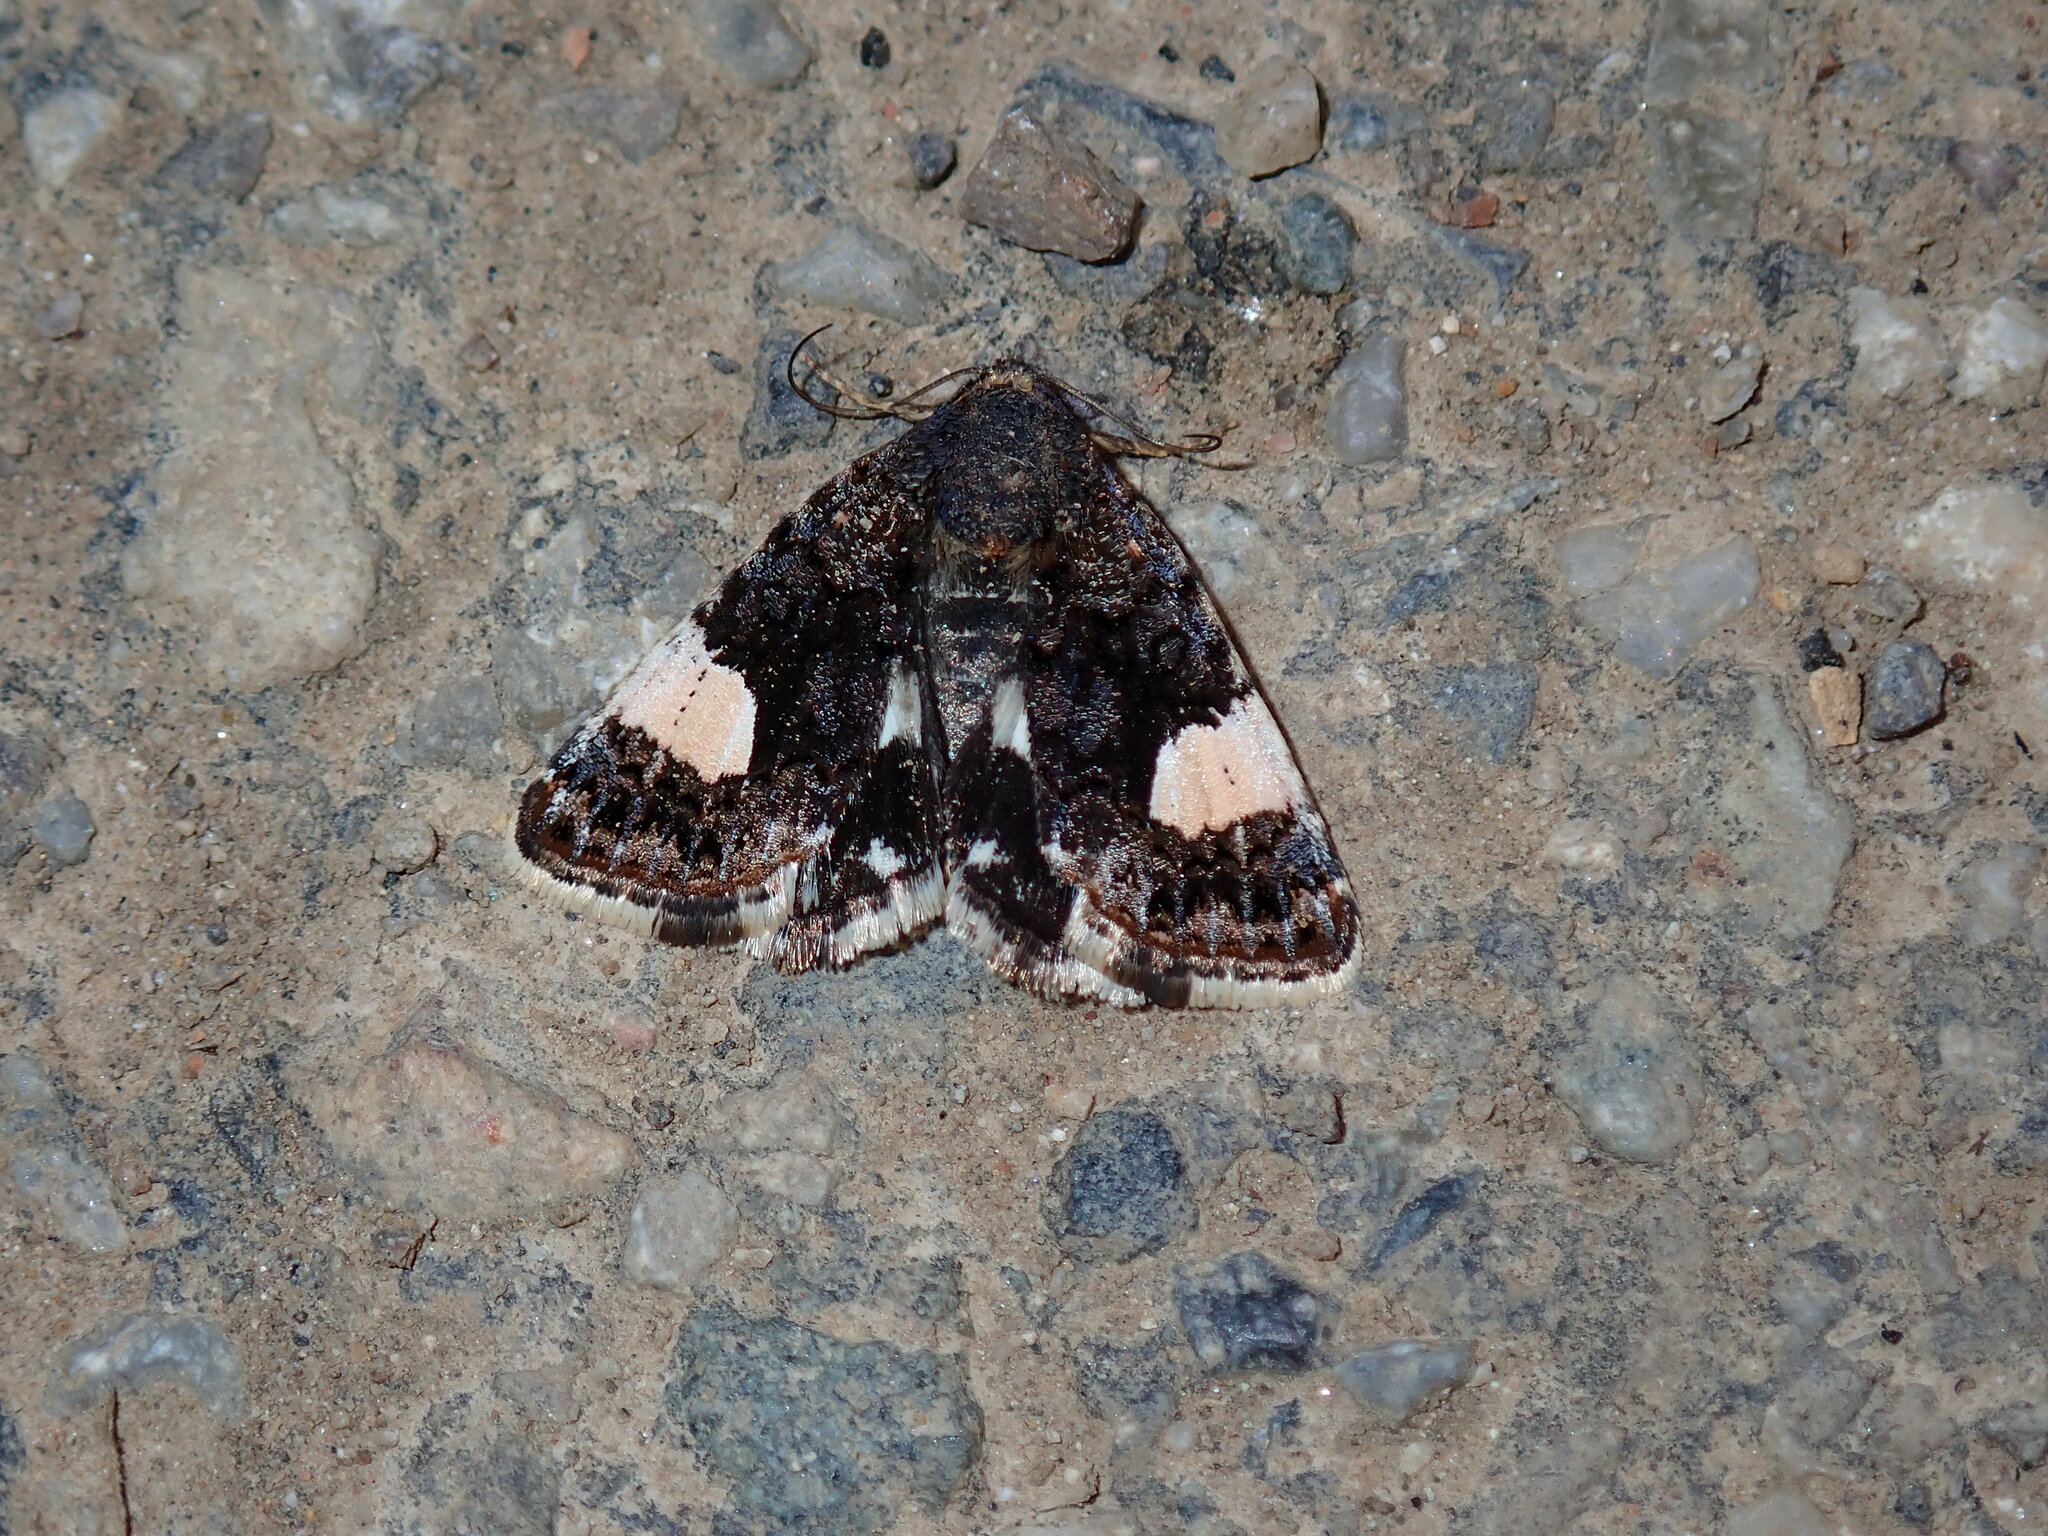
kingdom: Animalia
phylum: Arthropoda
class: Insecta
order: Lepidoptera
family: Erebidae
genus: Tyta
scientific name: Tyta luctuosa
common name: Four-spotted
